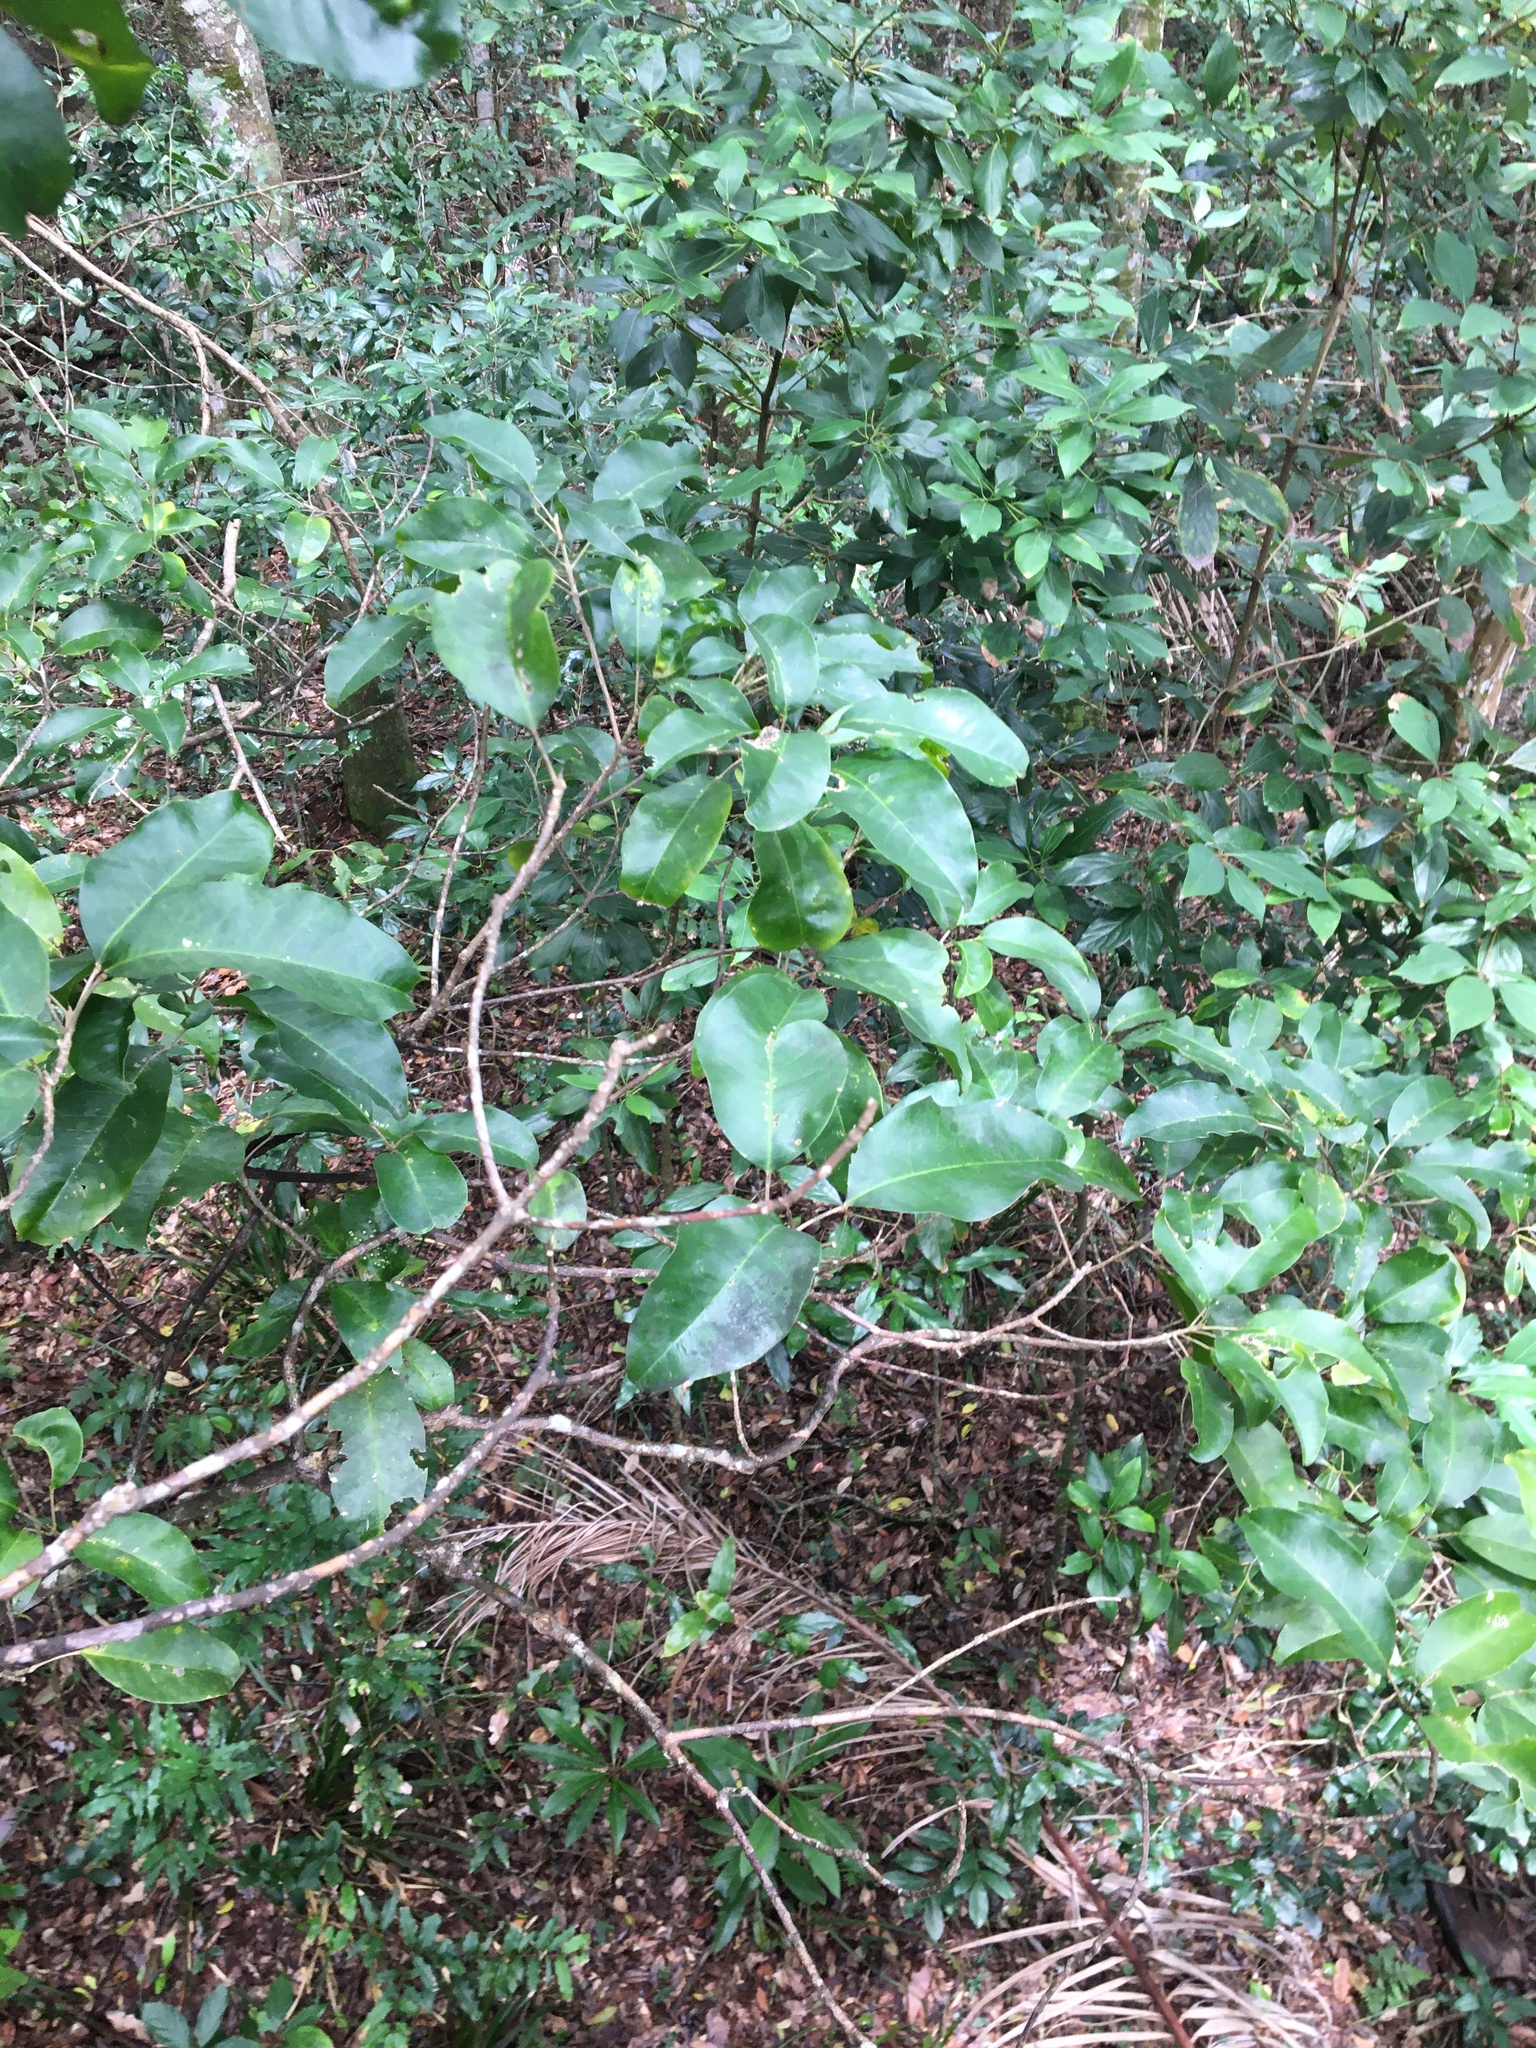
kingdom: Plantae
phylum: Tracheophyta
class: Magnoliopsida
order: Sapindales
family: Rutaceae
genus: Sarcomelicope
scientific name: Sarcomelicope simplicifolia
